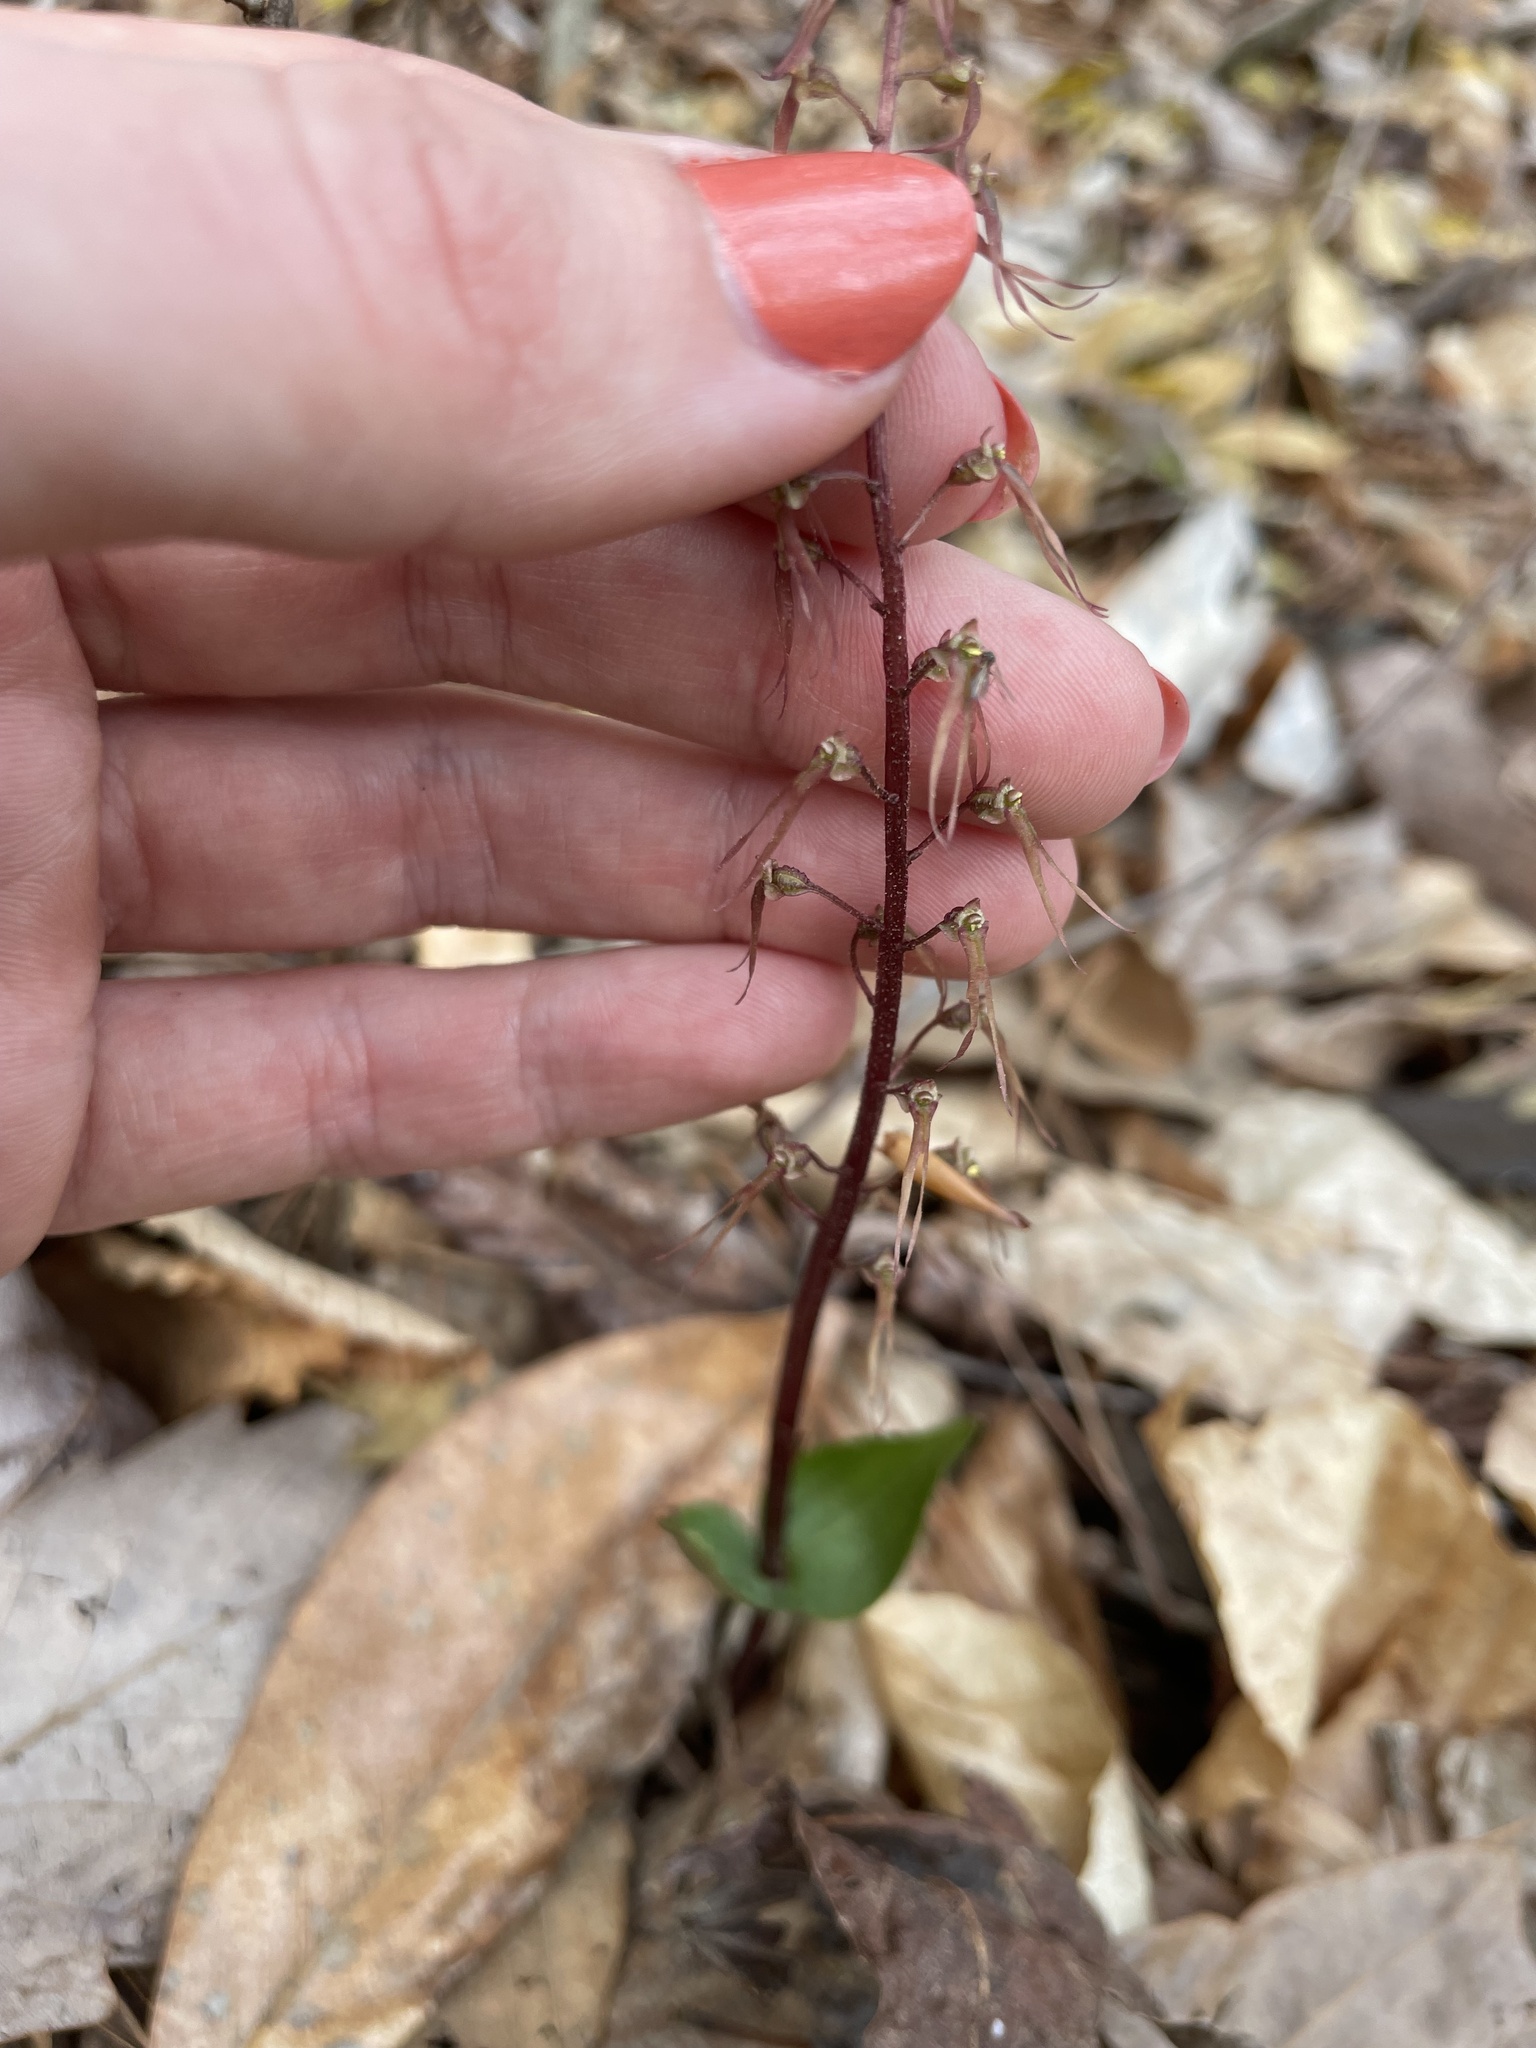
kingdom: Plantae
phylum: Tracheophyta
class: Liliopsida
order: Asparagales
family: Orchidaceae
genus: Neottia
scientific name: Neottia bifolia
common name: Southern twayblade
